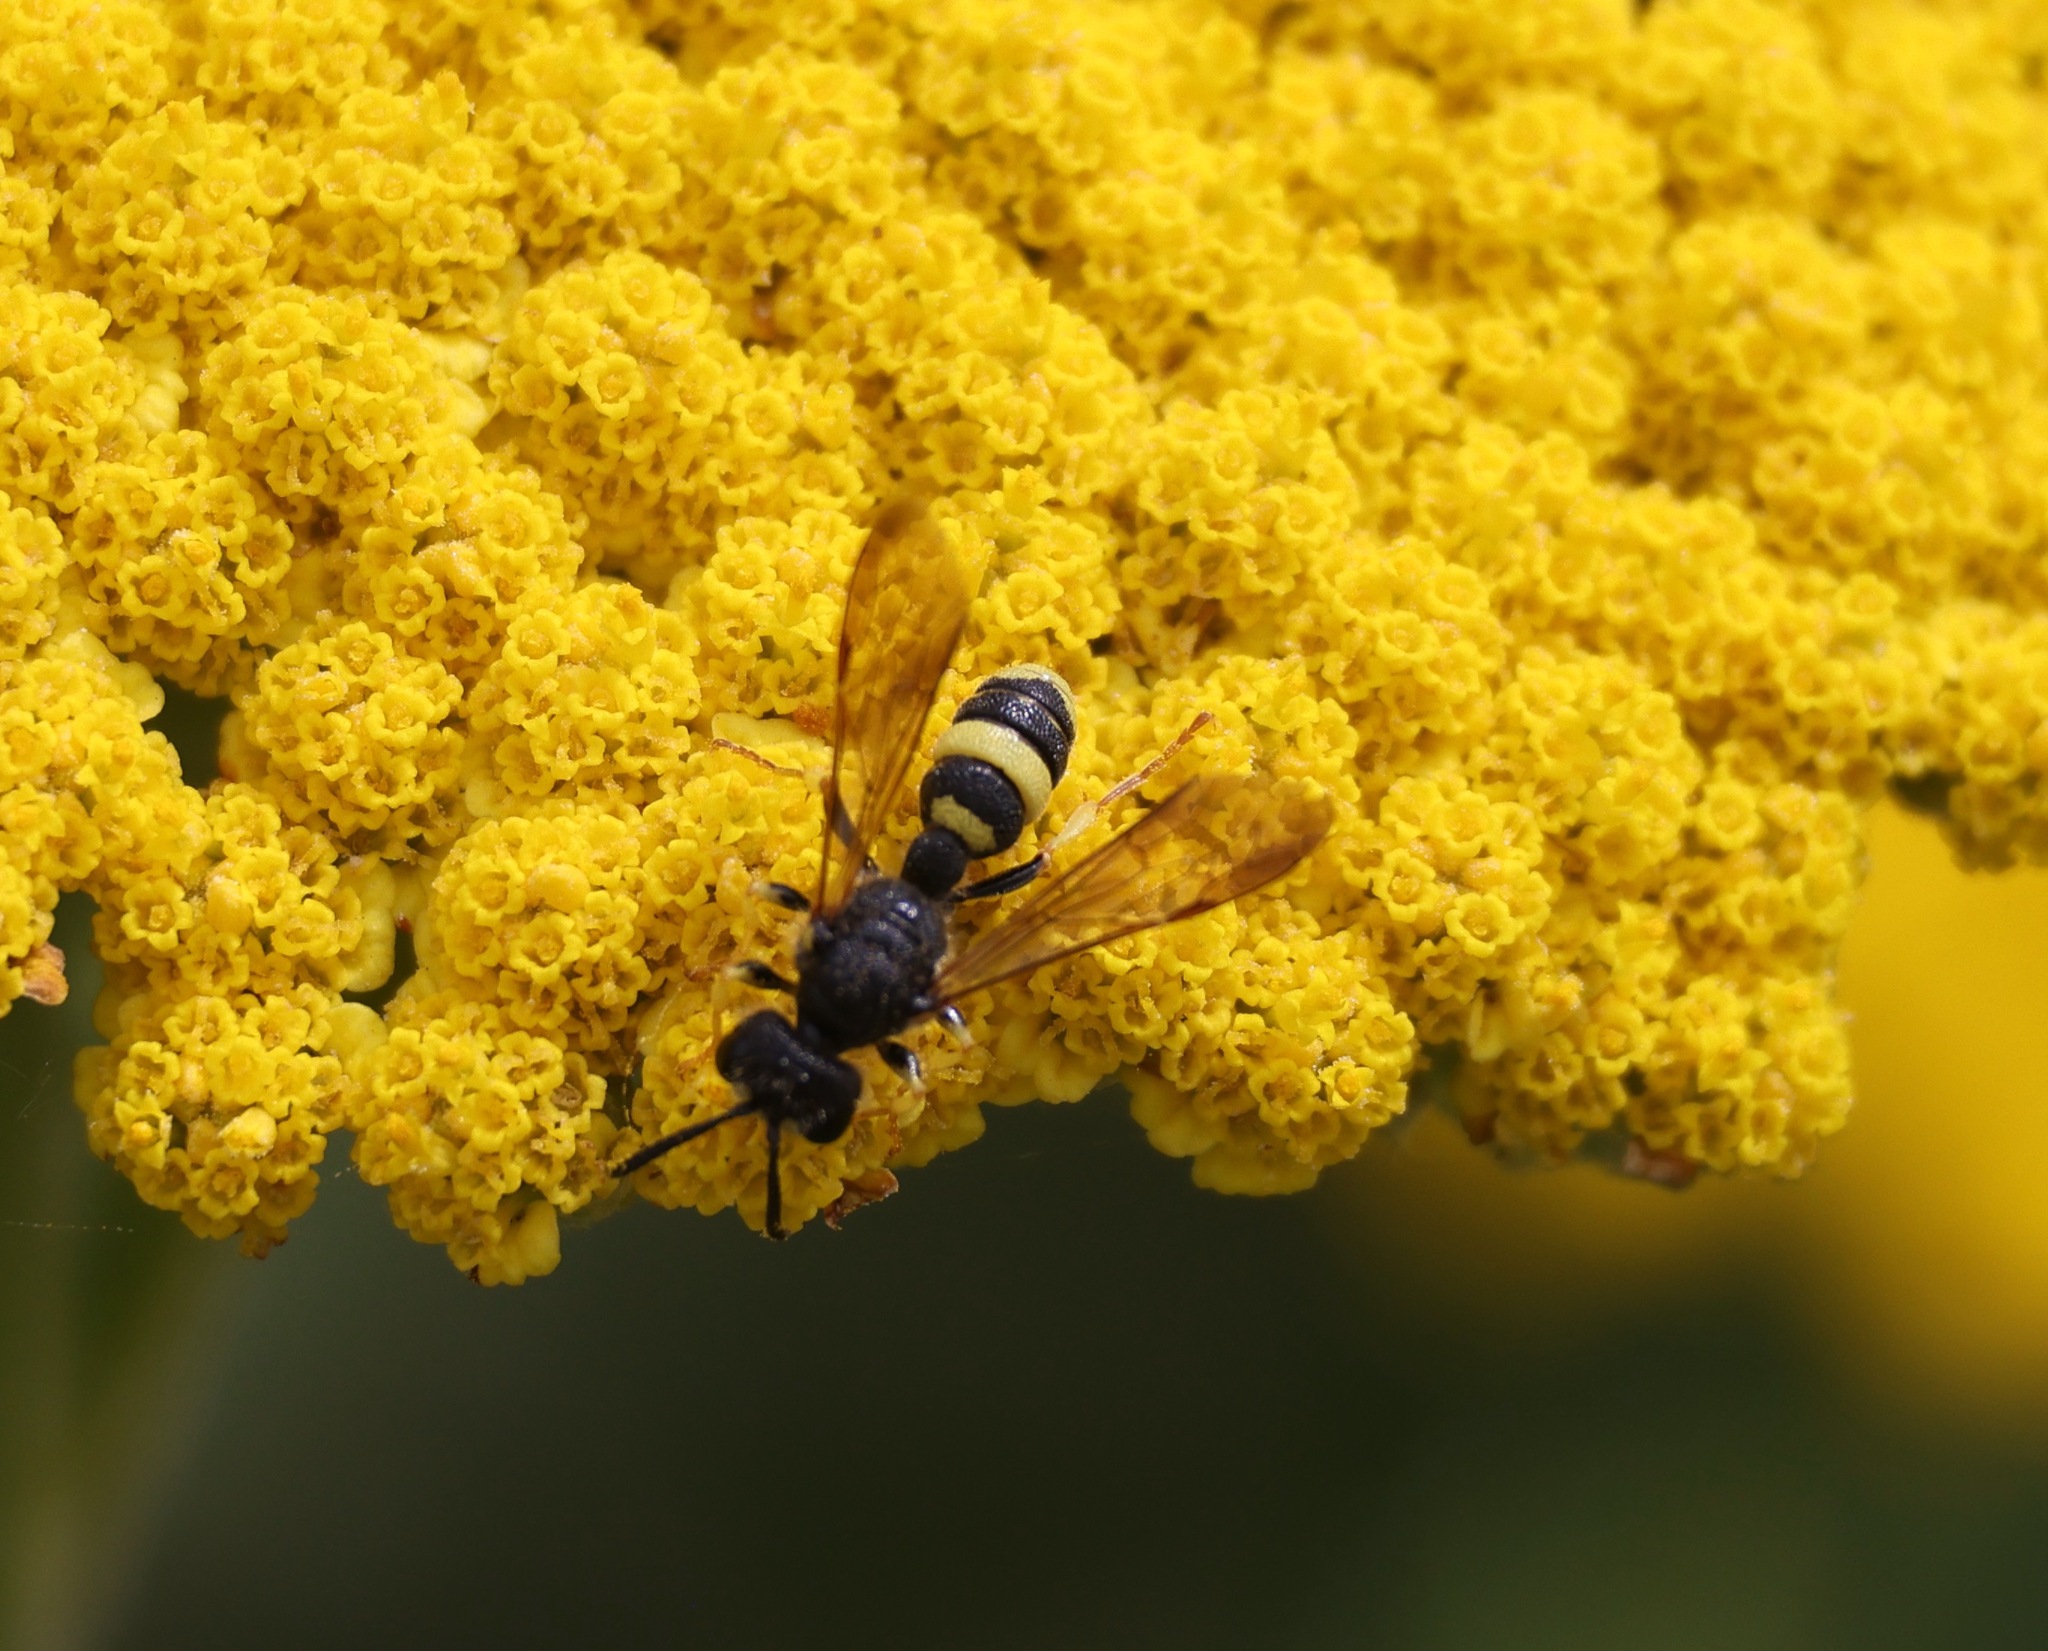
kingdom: Animalia
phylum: Arthropoda
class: Insecta
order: Hymenoptera
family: Crabronidae
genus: Cerceris
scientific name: Cerceris rybyensis
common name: Ornate tailed digger wasp
